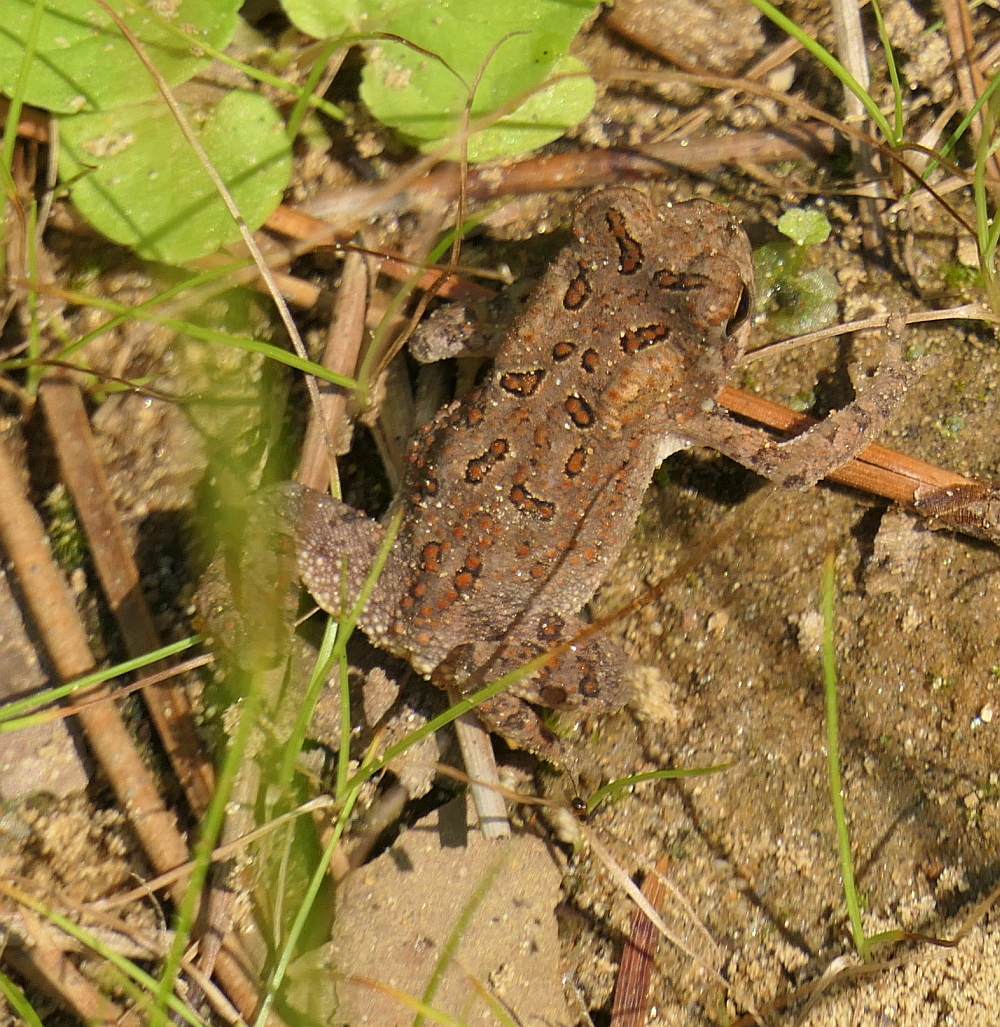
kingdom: Animalia
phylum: Chordata
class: Amphibia
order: Anura
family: Bufonidae
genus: Anaxyrus
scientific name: Anaxyrus americanus
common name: American toad
